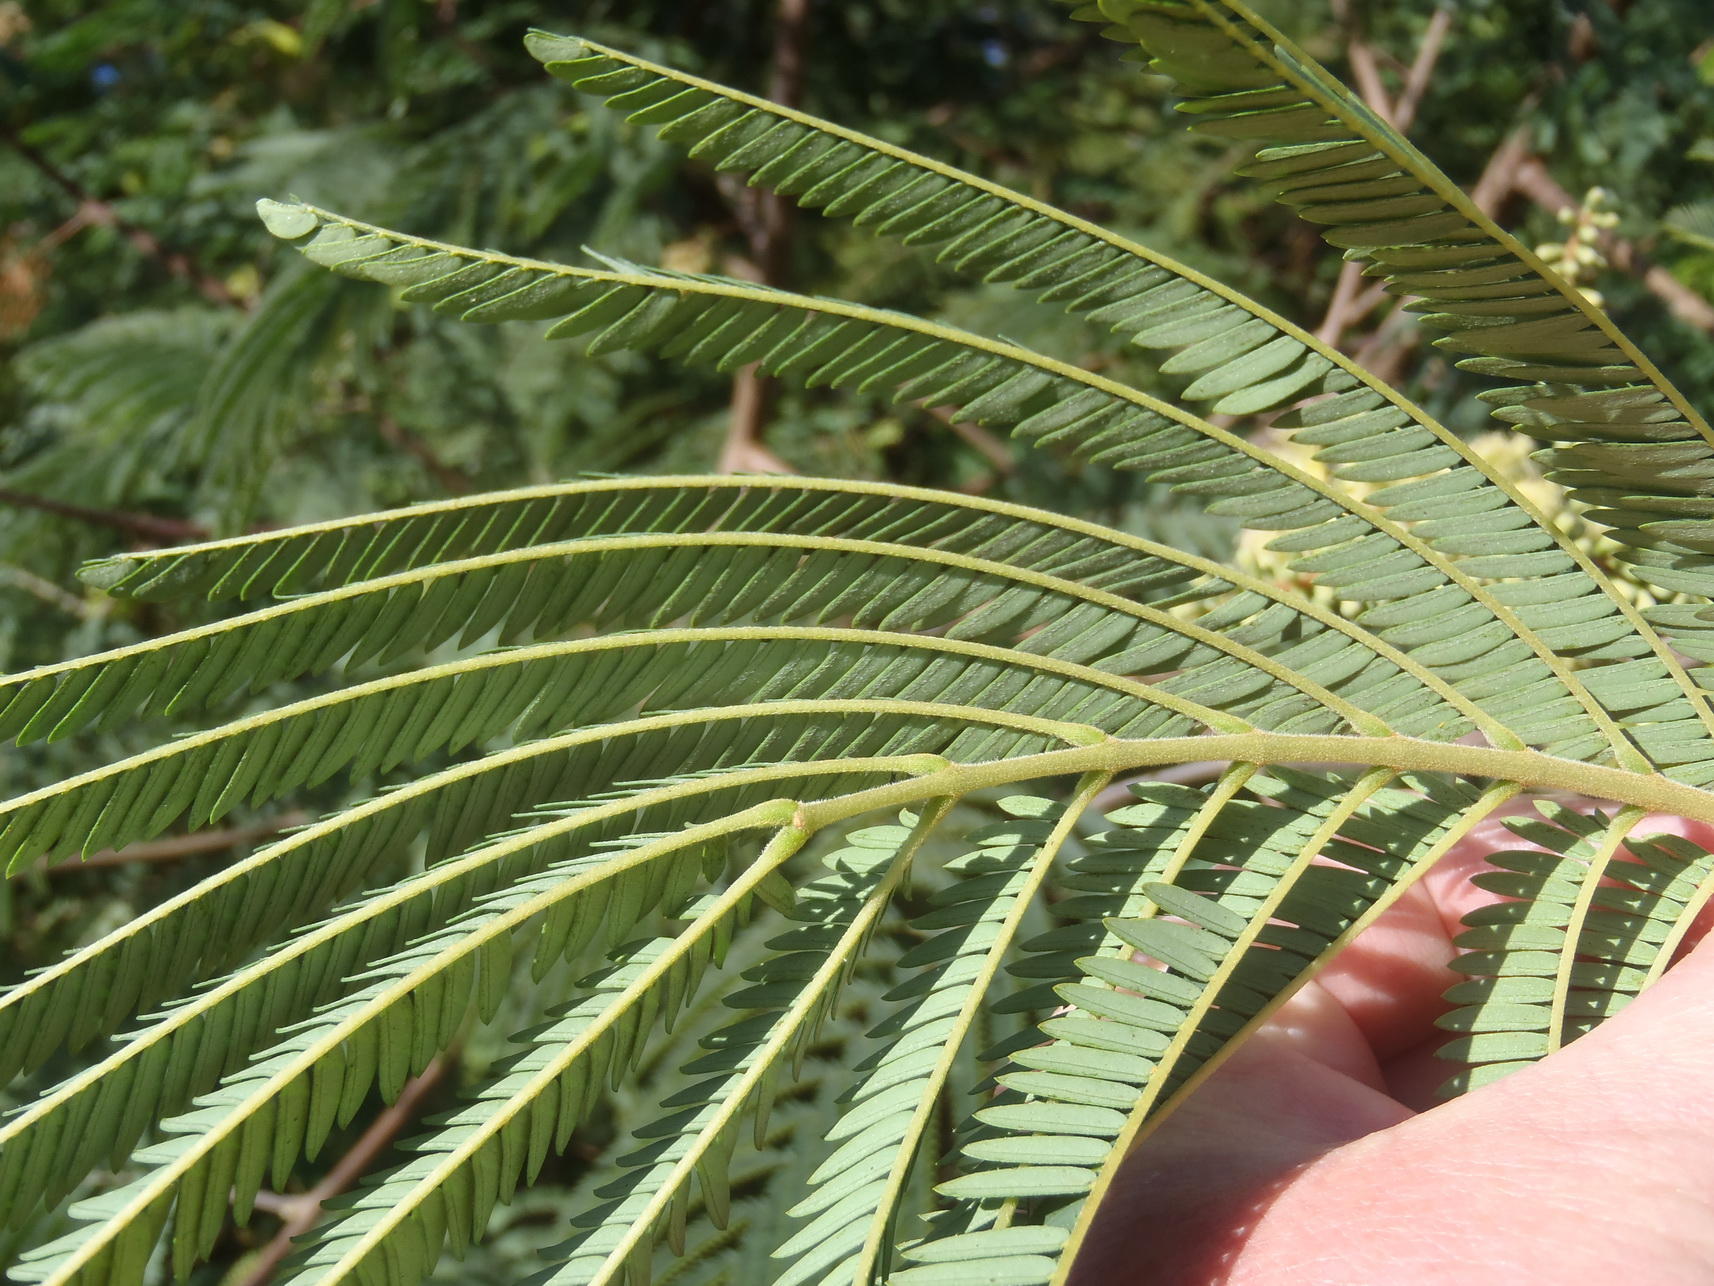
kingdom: Plantae
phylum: Tracheophyta
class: Magnoliopsida
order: Fabales
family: Fabaceae
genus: Paraserianthes
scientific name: Paraserianthes lophantha
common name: Plume albizia
